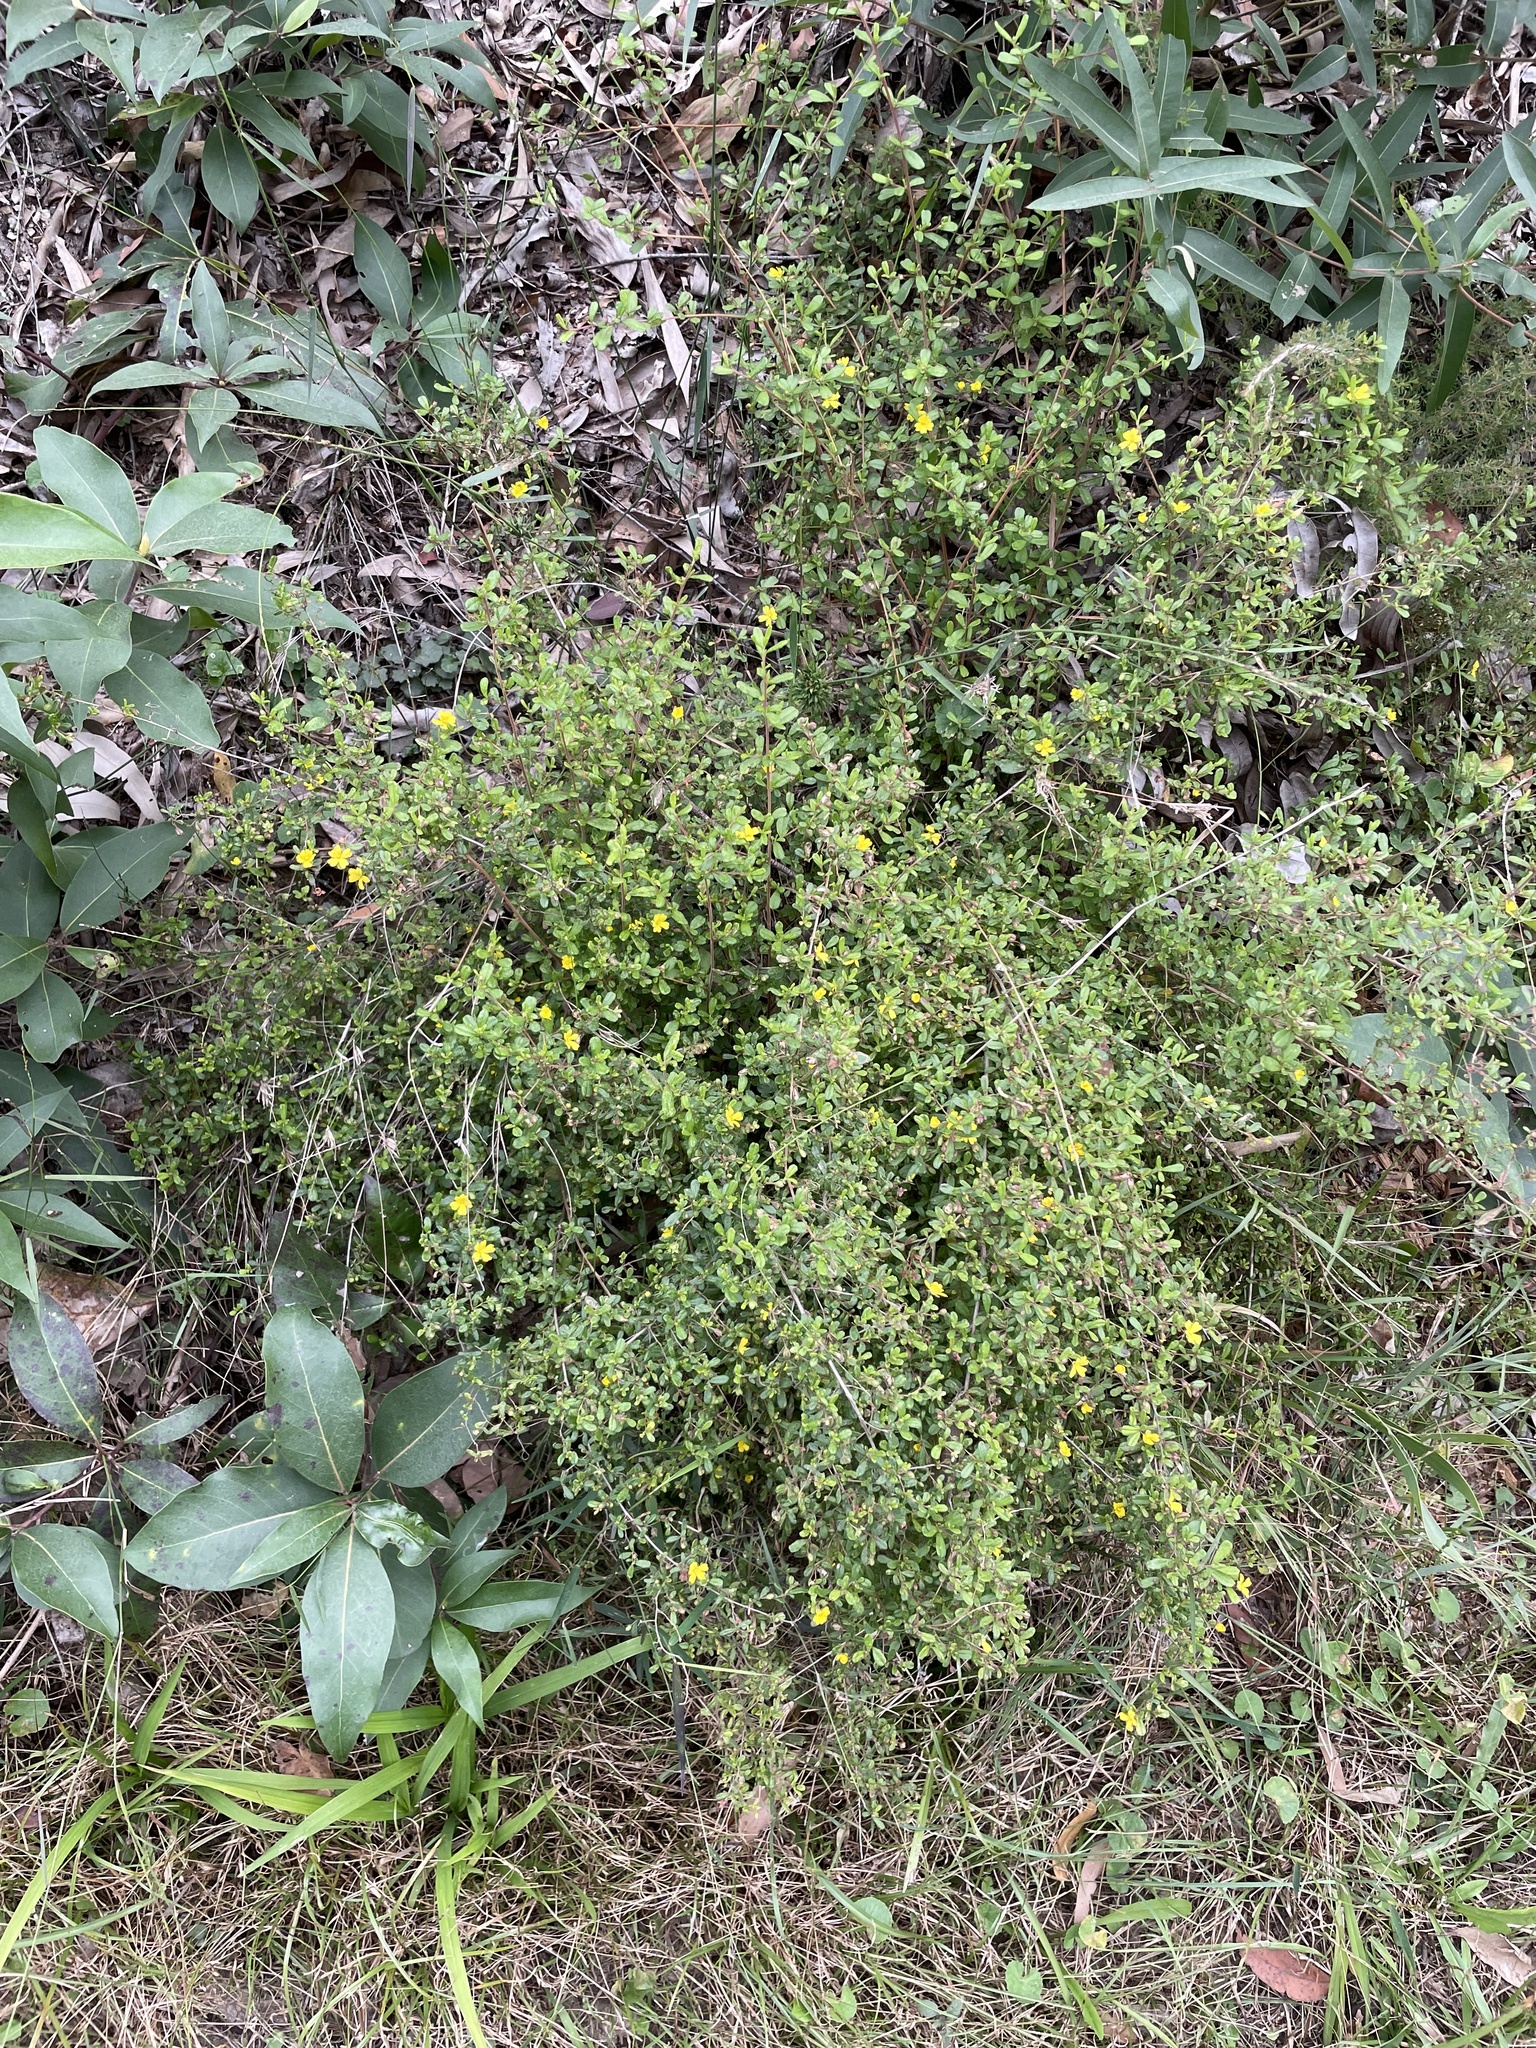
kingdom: Plantae
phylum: Tracheophyta
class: Magnoliopsida
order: Dilleniales
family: Dilleniaceae
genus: Hibbertia
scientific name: Hibbertia aspera
